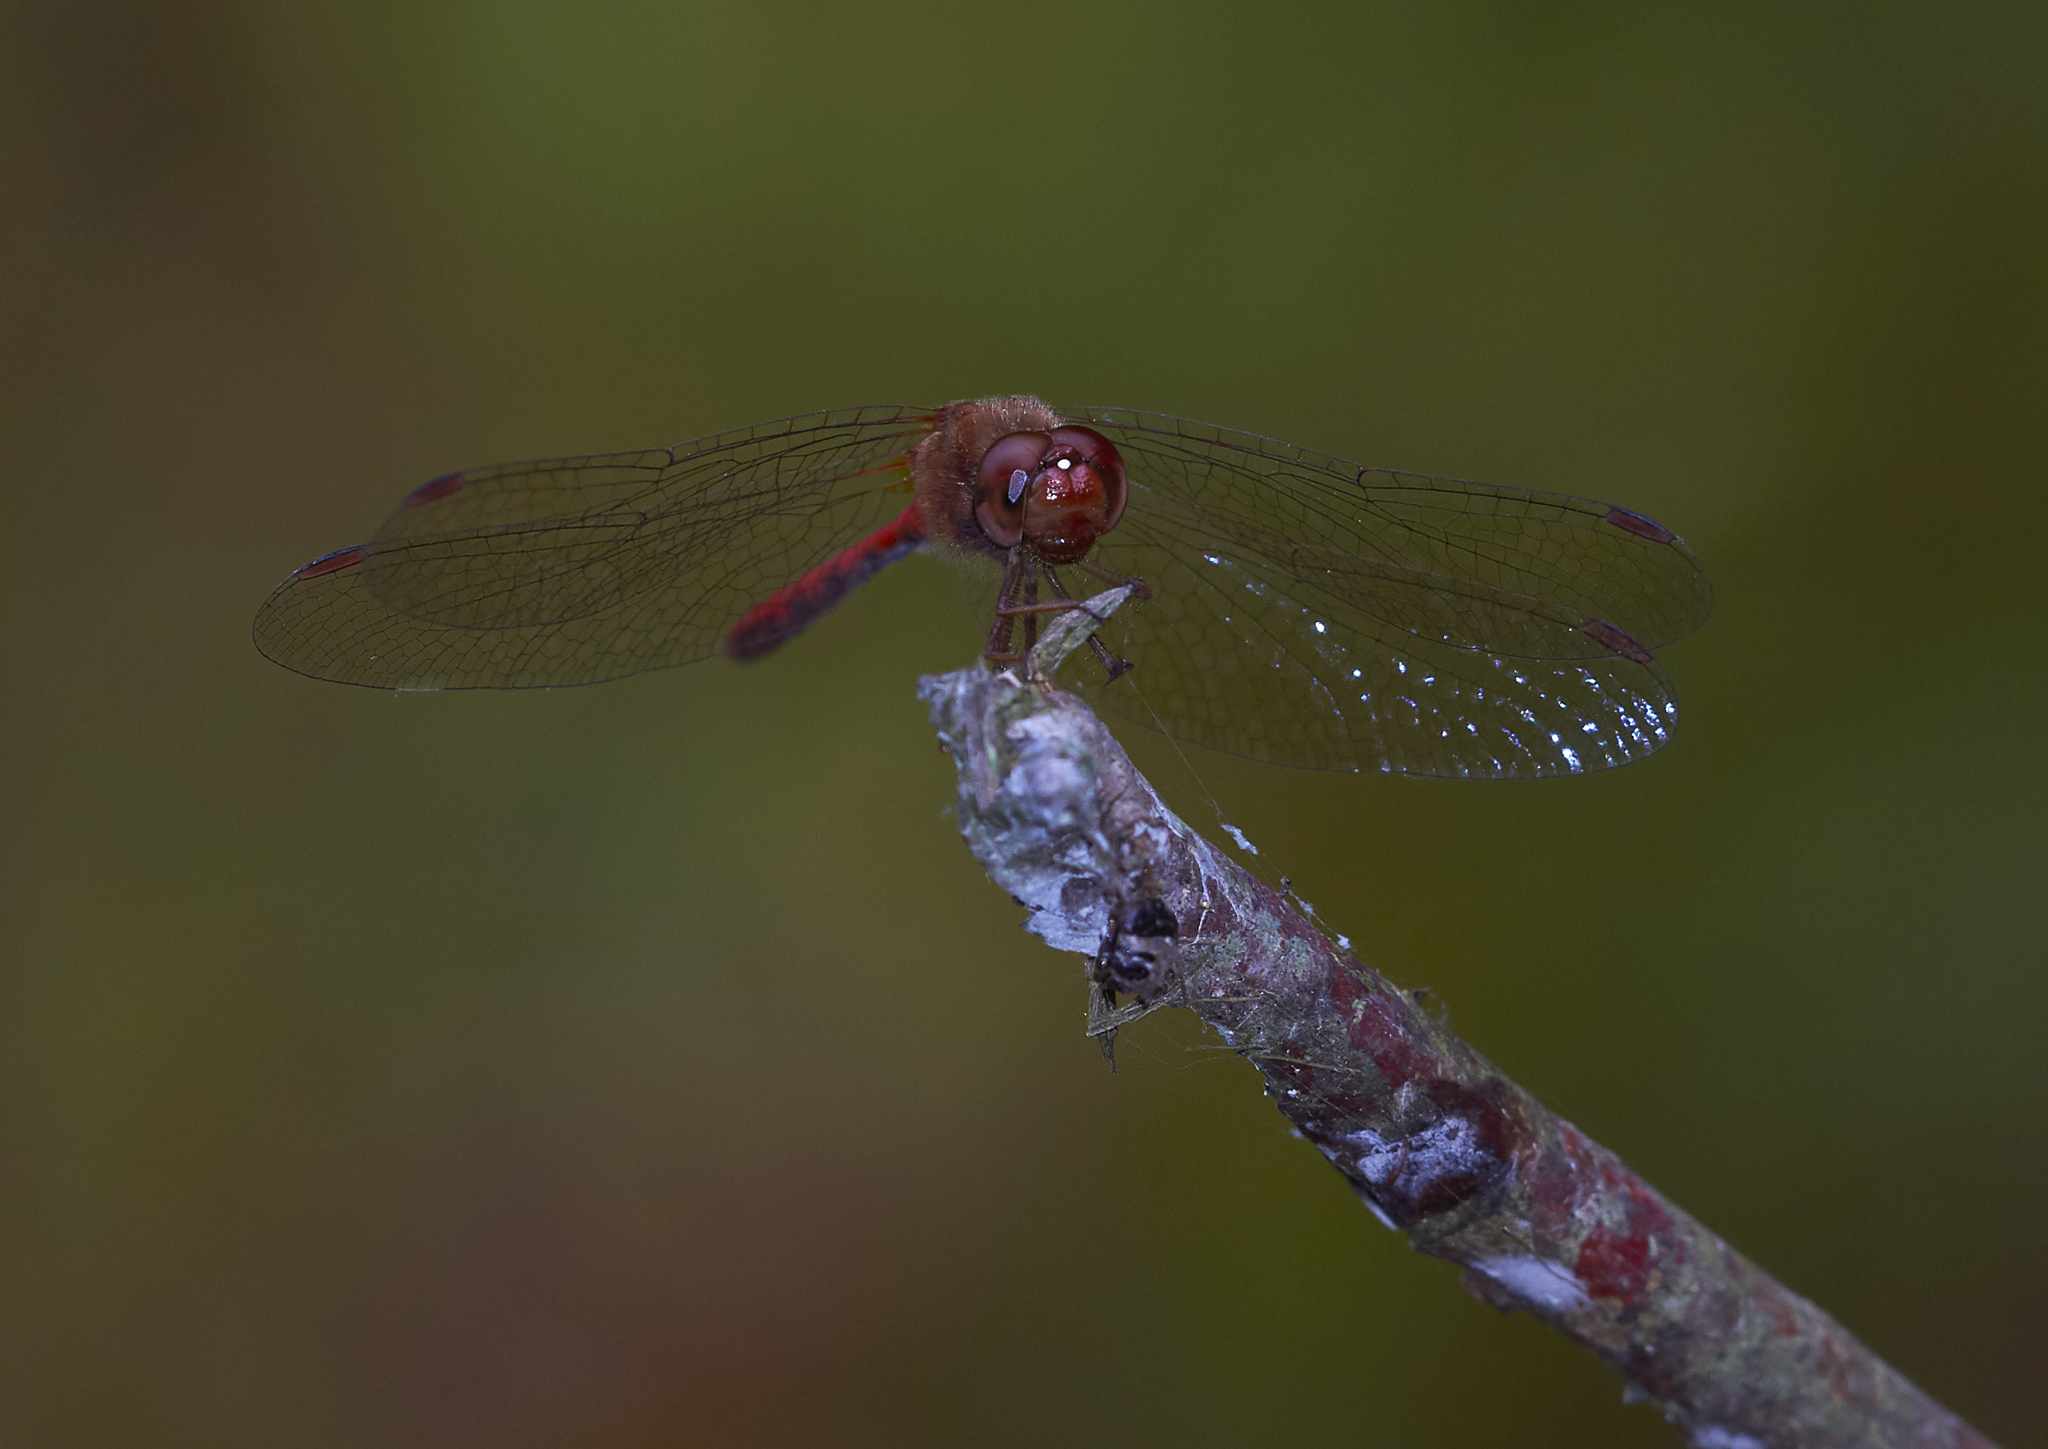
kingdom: Animalia
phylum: Arthropoda
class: Insecta
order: Odonata
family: Libellulidae
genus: Sympetrum
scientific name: Sympetrum vicinum
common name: Autumn meadowhawk
